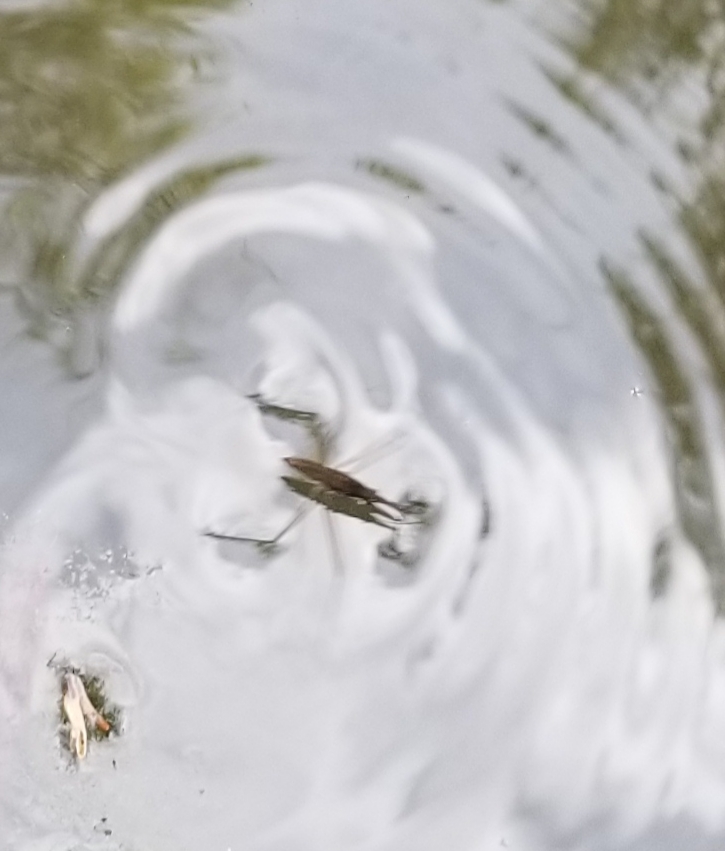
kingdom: Animalia
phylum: Arthropoda
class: Insecta
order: Hemiptera
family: Gerridae
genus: Aquarius
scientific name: Aquarius remigis
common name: Common water strider
